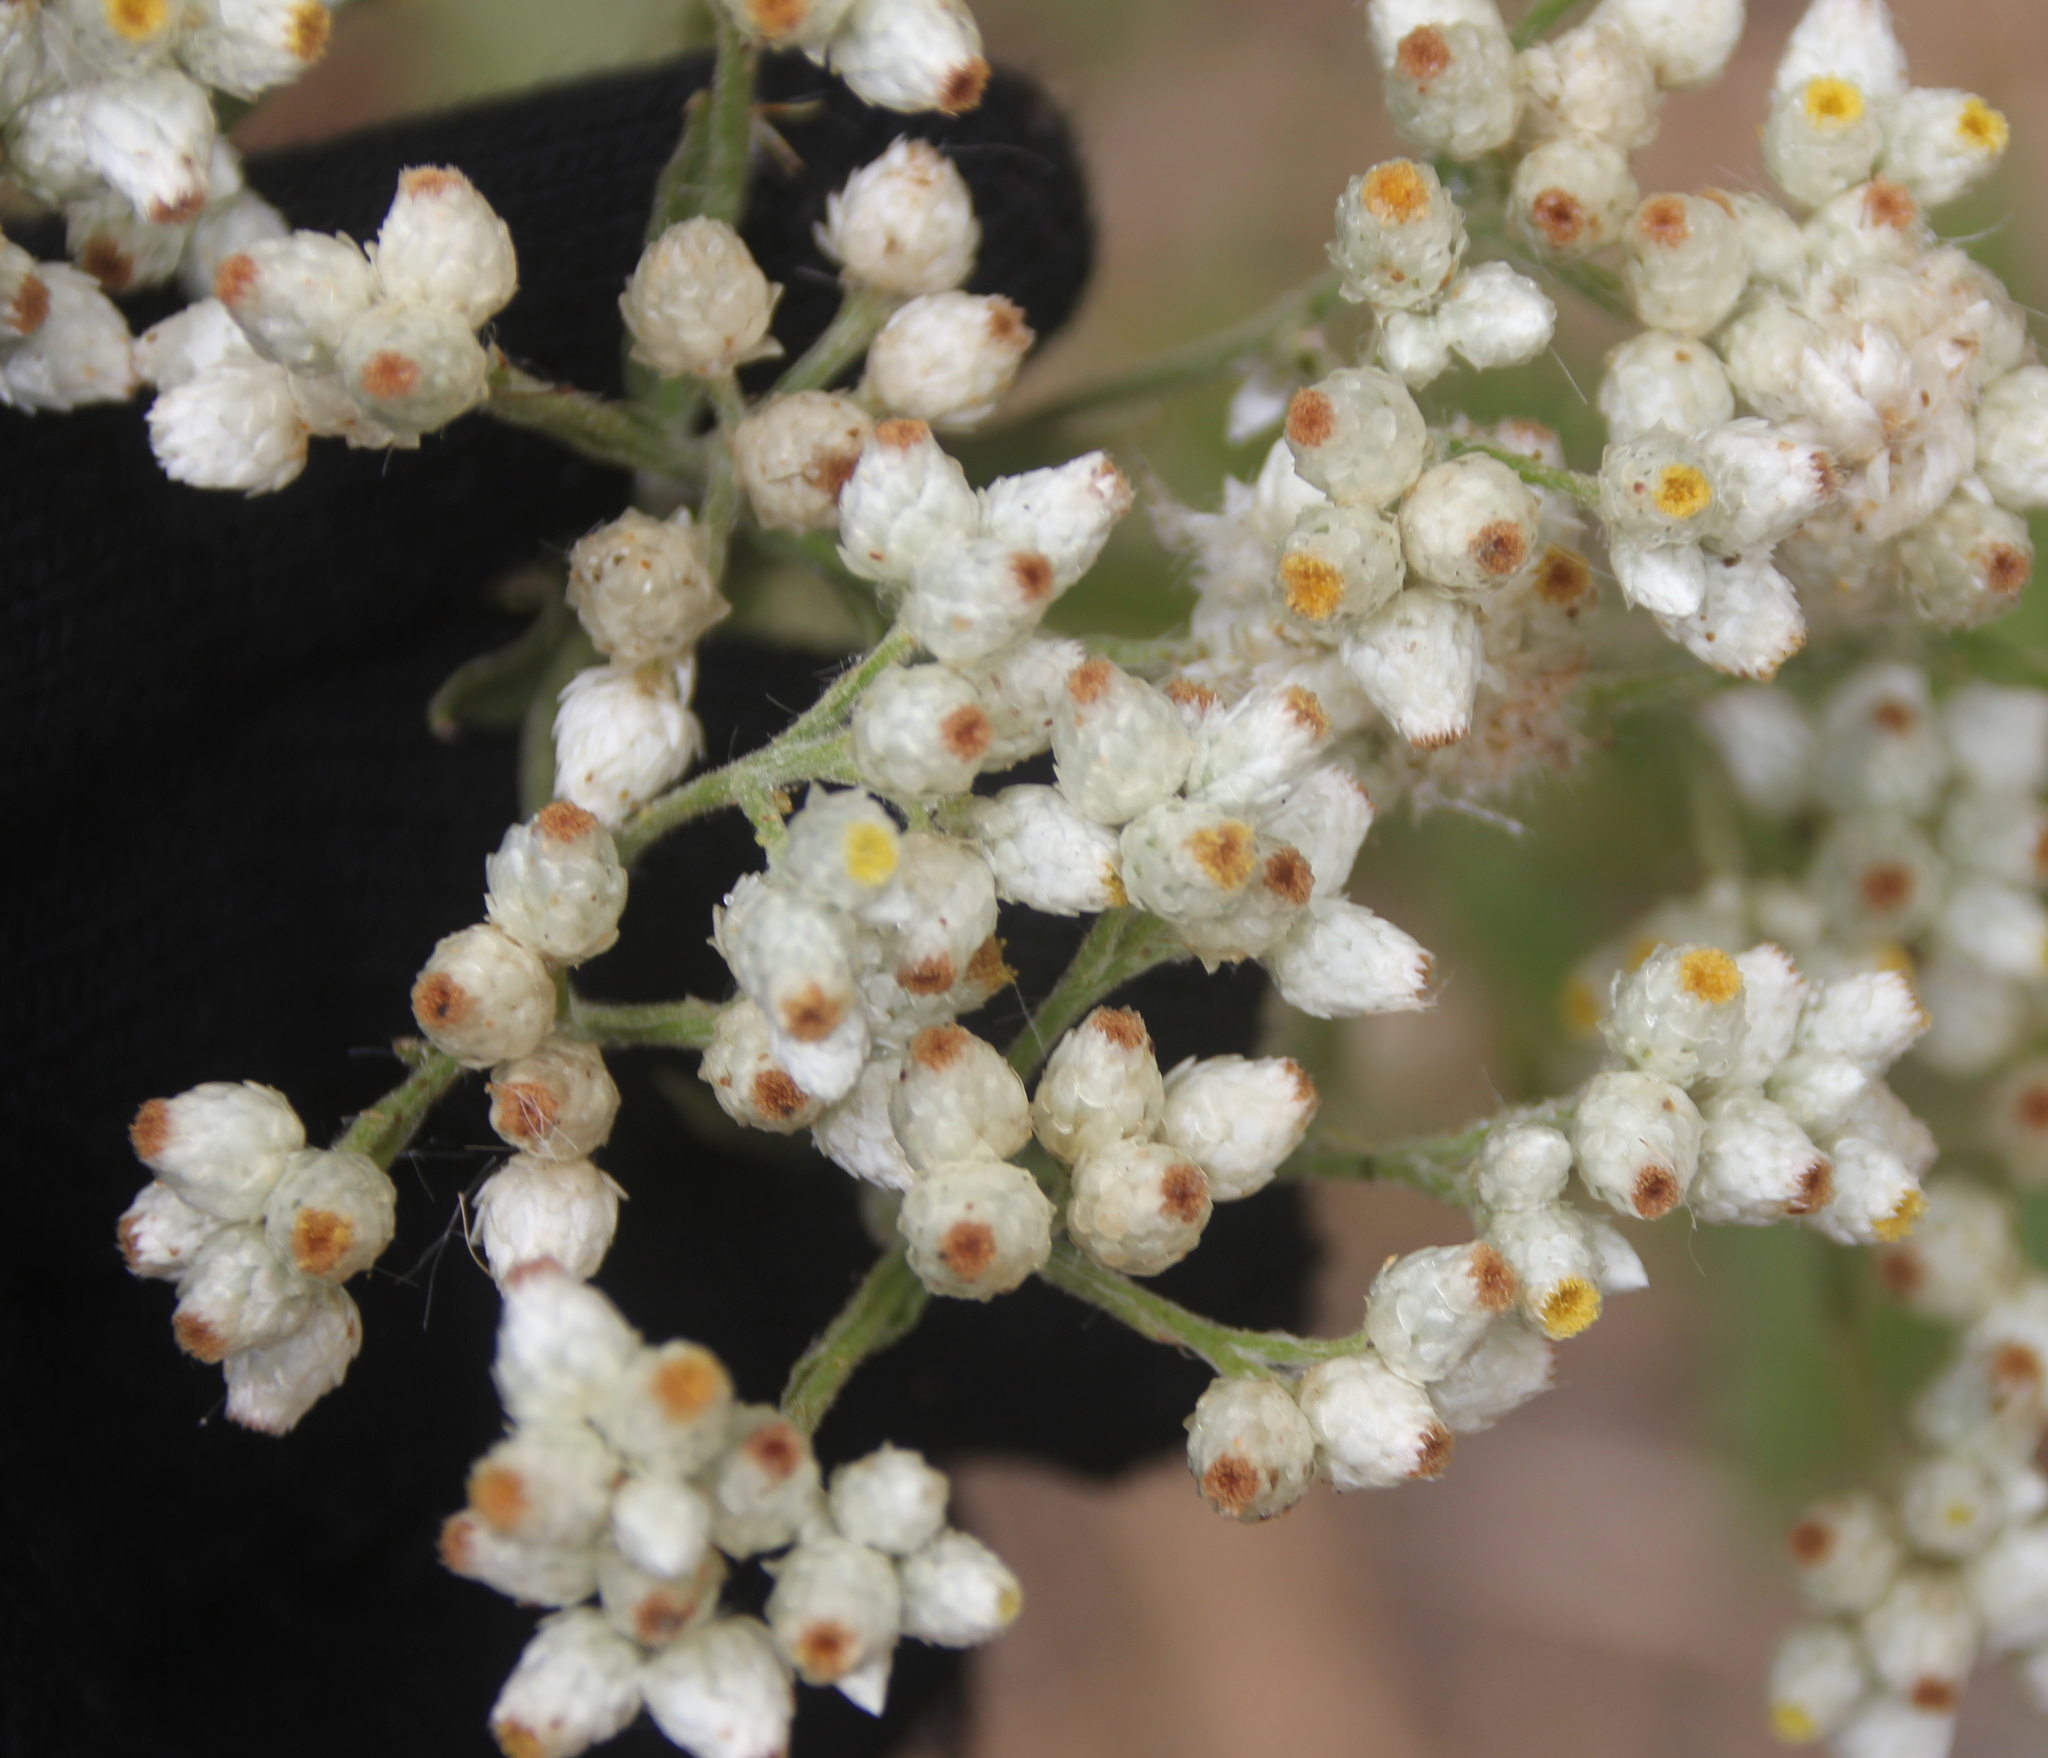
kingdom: Plantae
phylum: Tracheophyta
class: Magnoliopsida
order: Asterales
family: Asteraceae
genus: Pseudognaphalium
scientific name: Pseudognaphalium californicum
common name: California rabbit-tobacco
